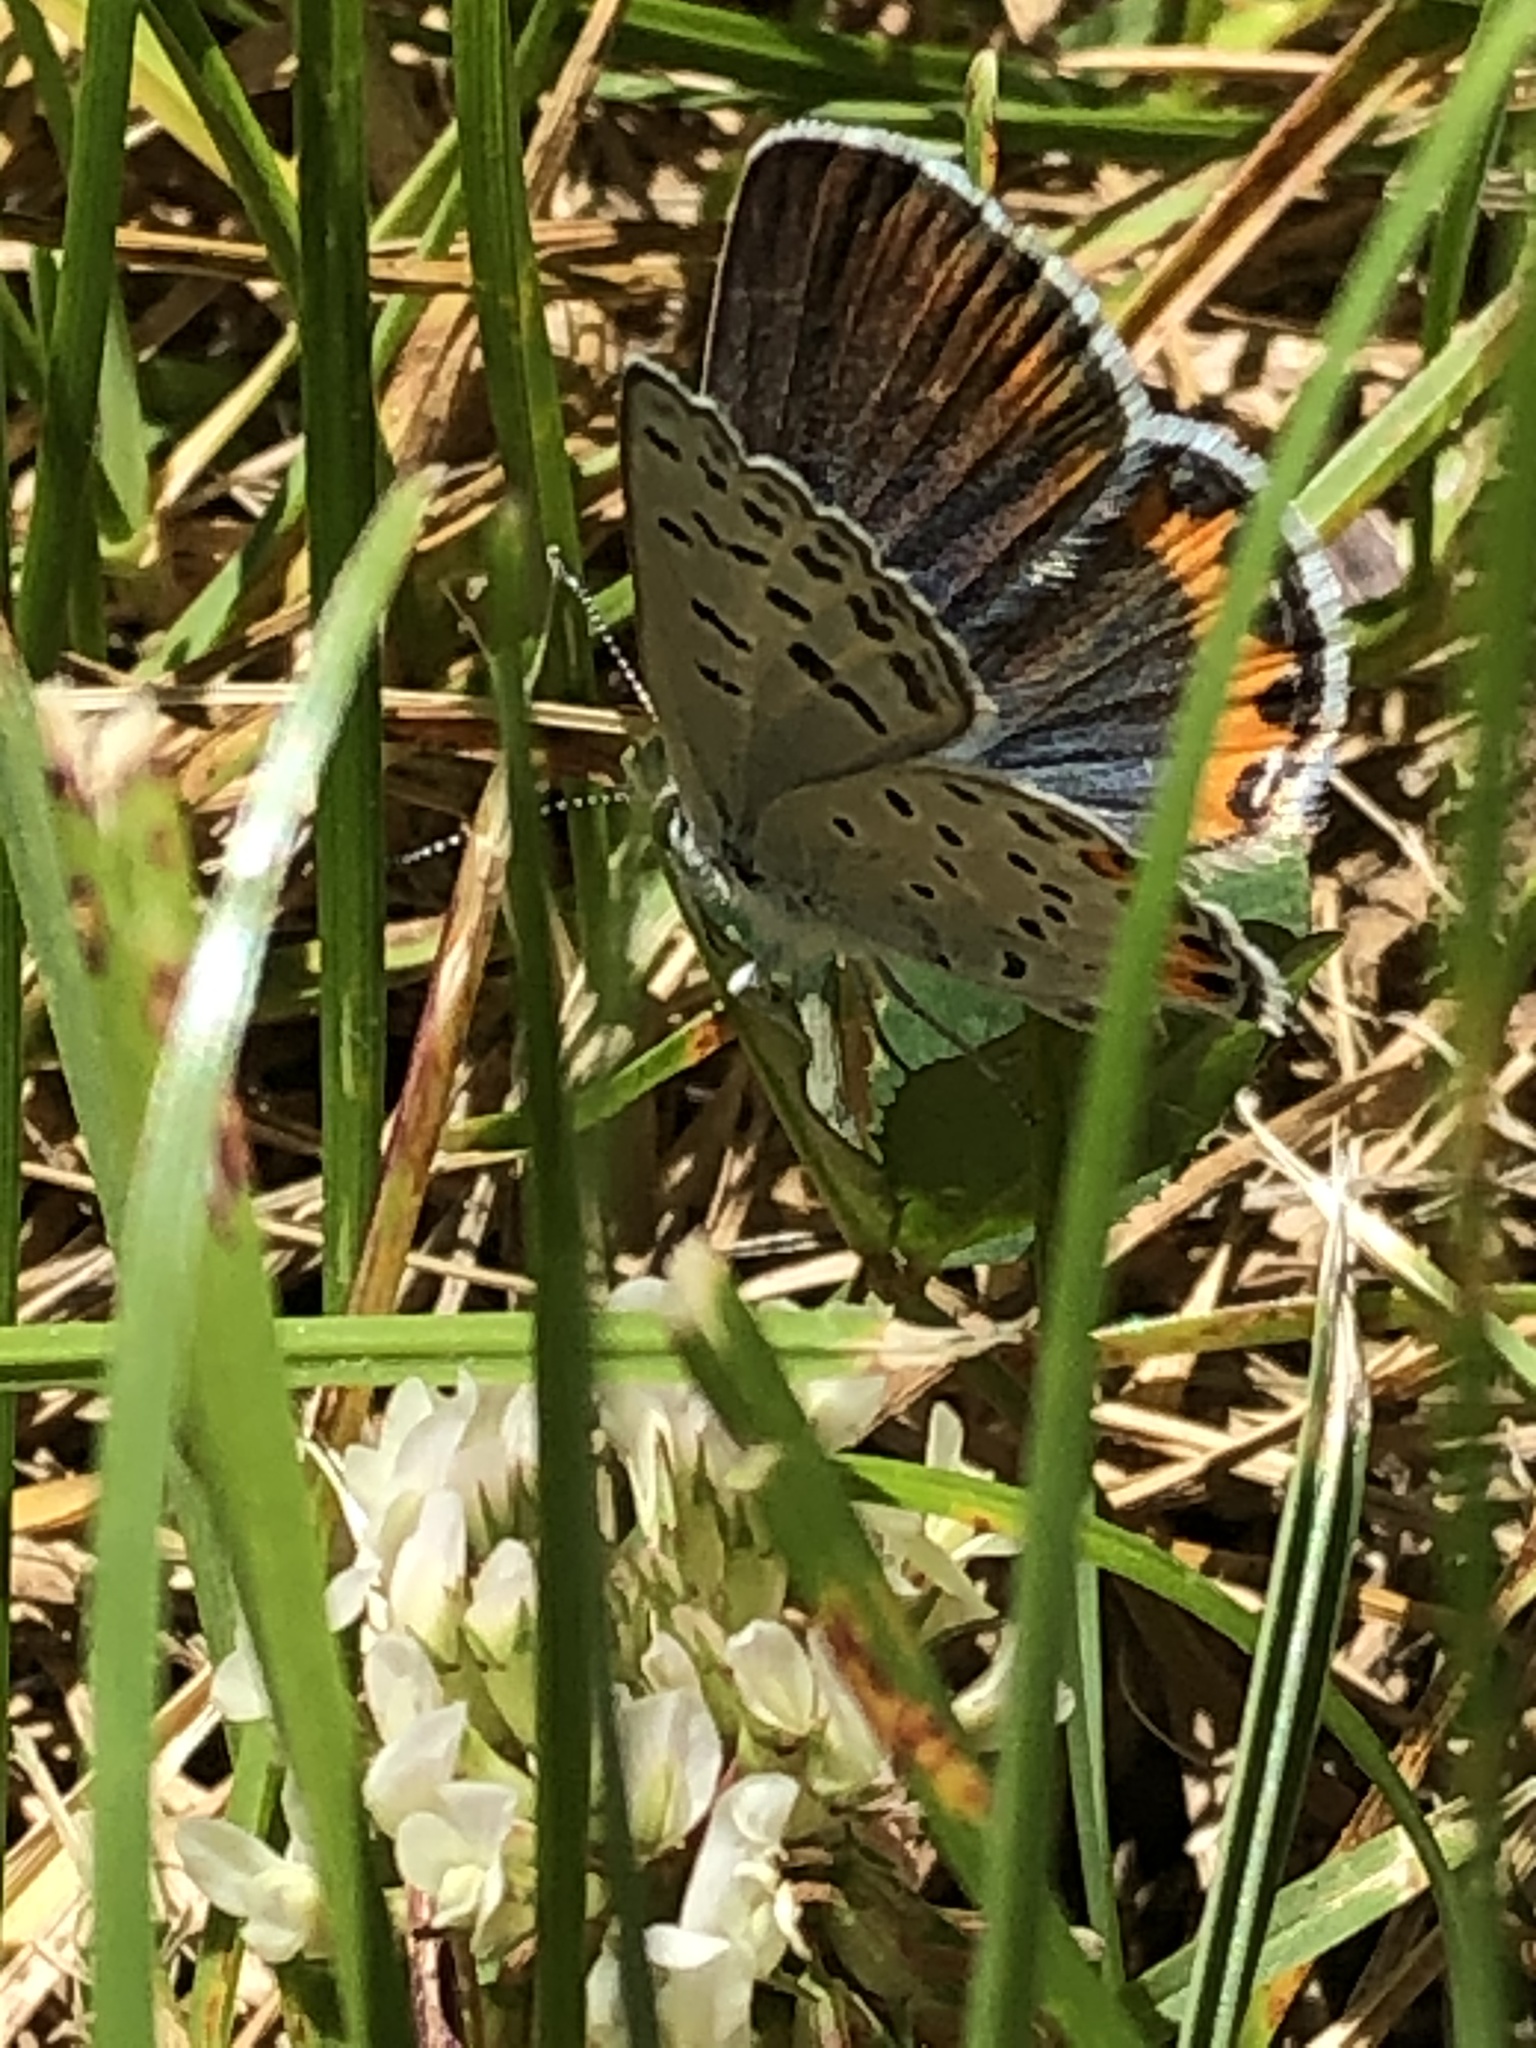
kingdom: Animalia
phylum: Arthropoda
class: Insecta
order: Lepidoptera
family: Lycaenidae
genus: Icaricia
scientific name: Icaricia acmon
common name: Acmon blue
